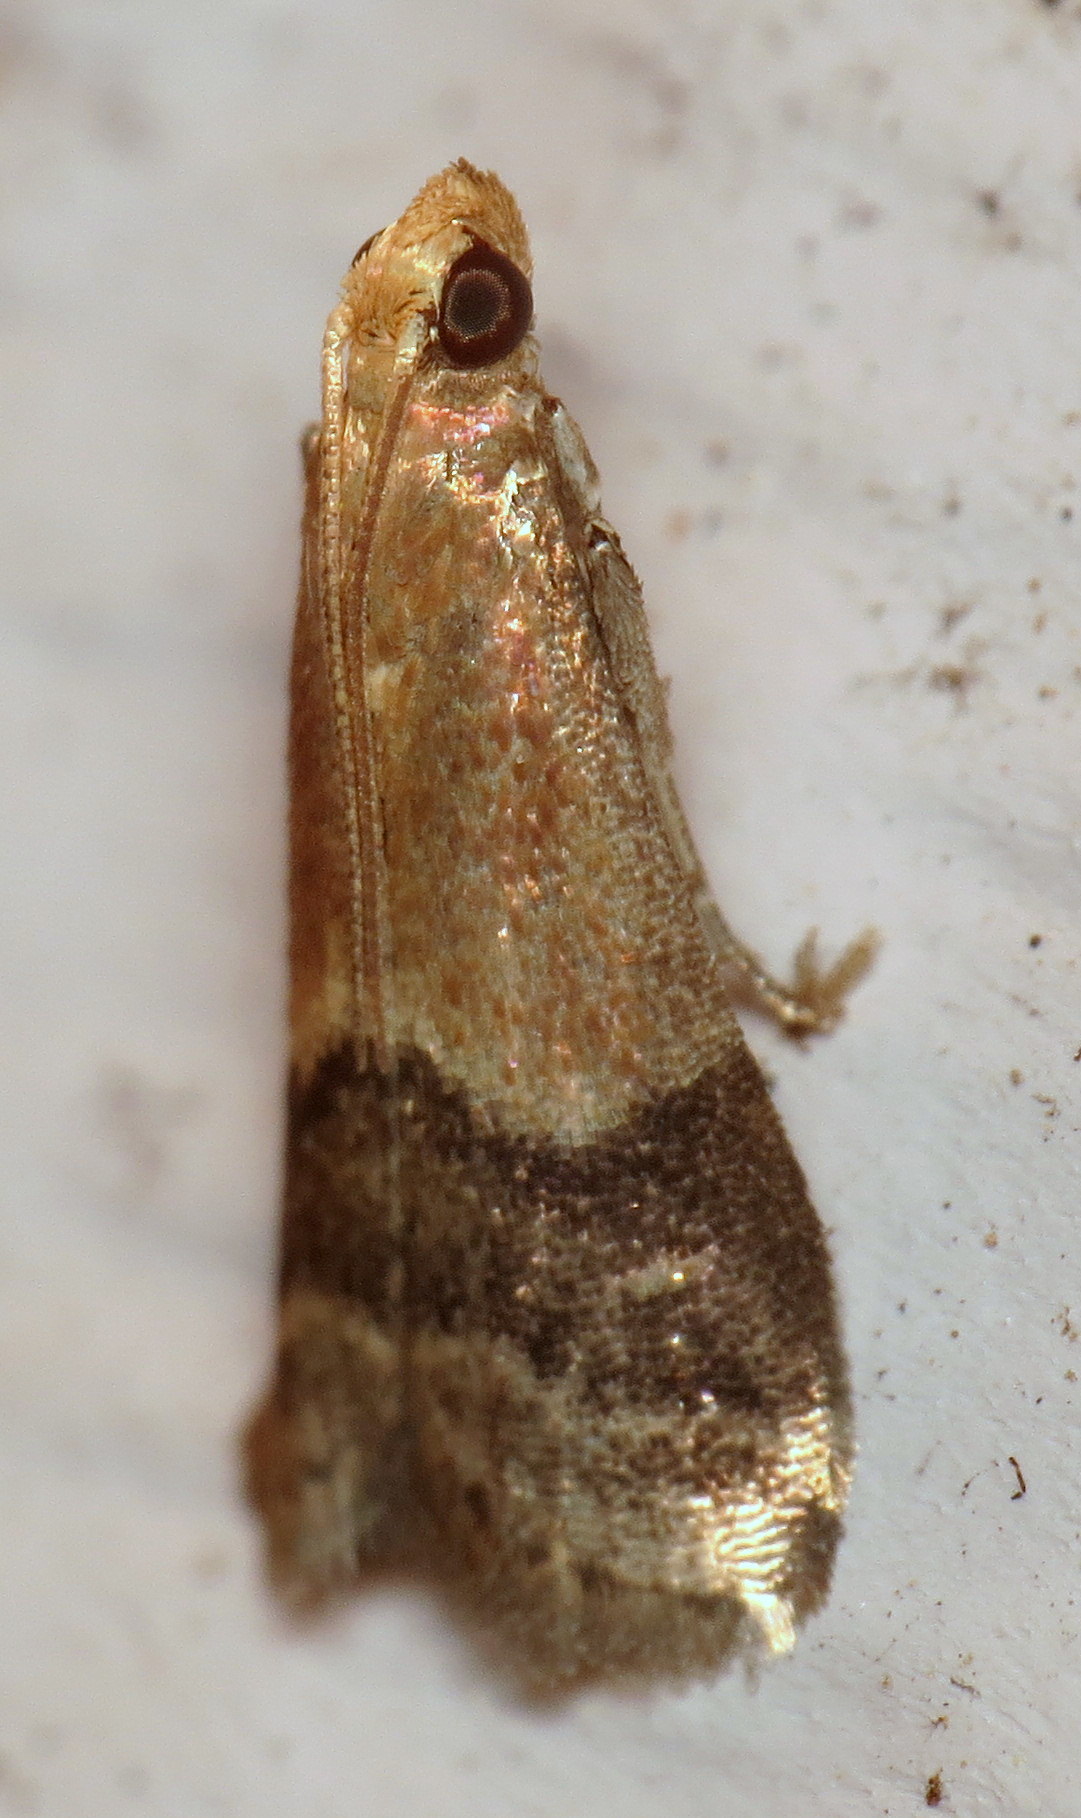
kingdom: Animalia
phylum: Arthropoda
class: Insecta
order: Lepidoptera
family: Pyralidae
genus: Eulogia
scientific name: Eulogia ochrifrontella
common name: Broad-banded eulogia moth
